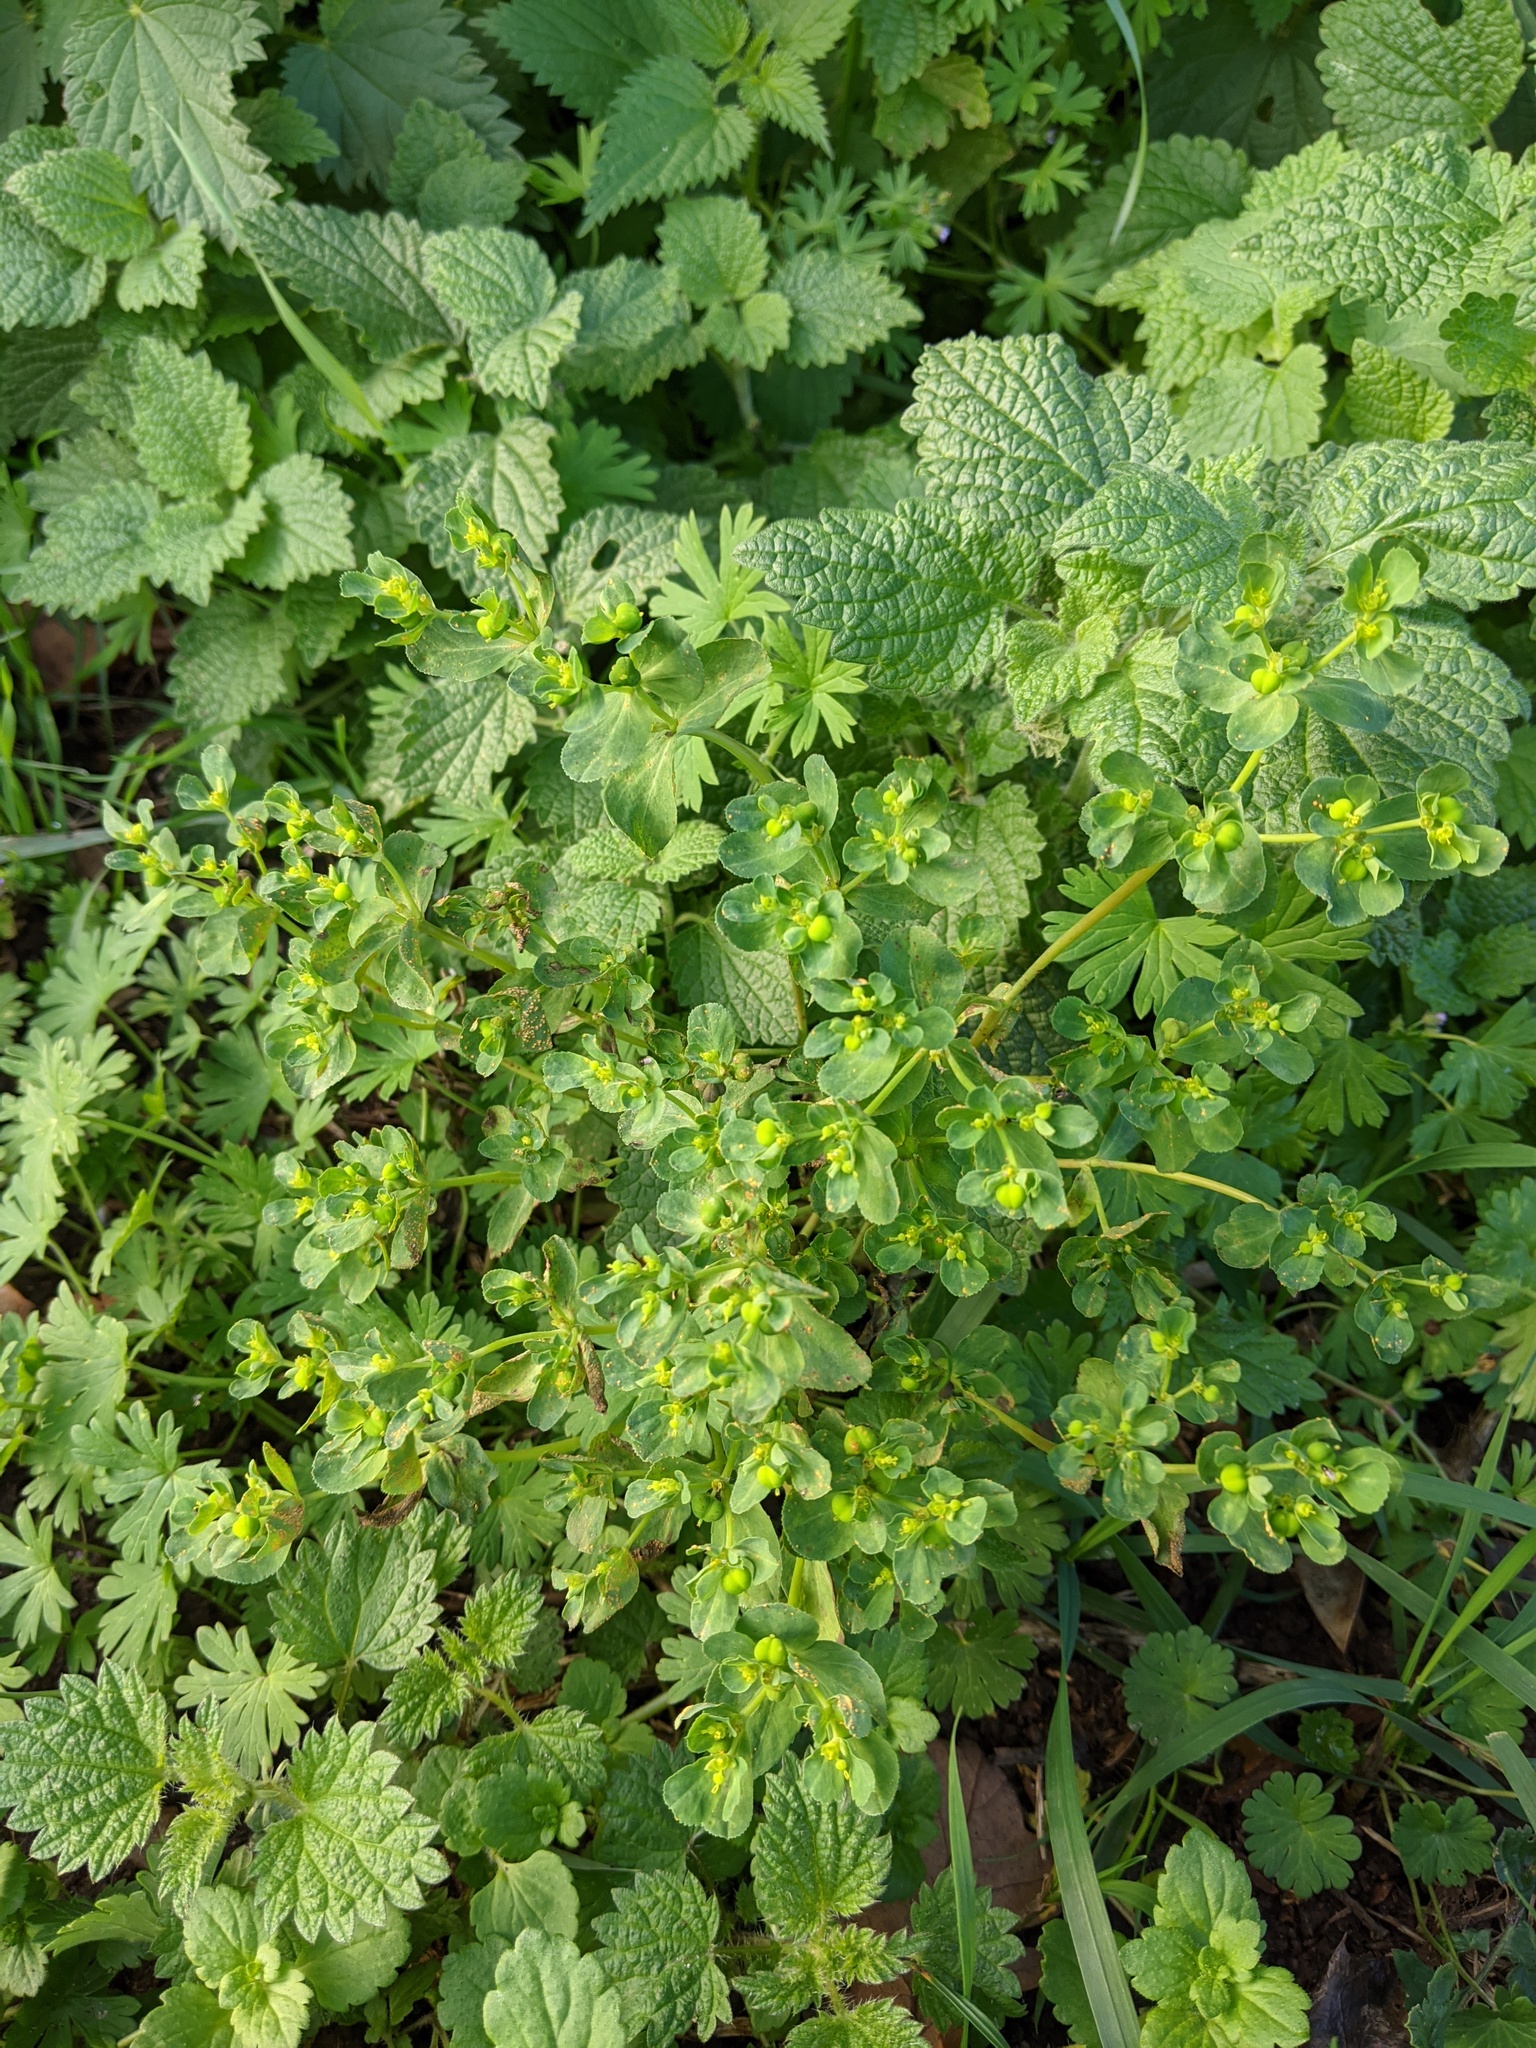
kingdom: Plantae
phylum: Tracheophyta
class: Magnoliopsida
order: Malpighiales
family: Euphorbiaceae
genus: Euphorbia
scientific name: Euphorbia helioscopia
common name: Sun spurge
